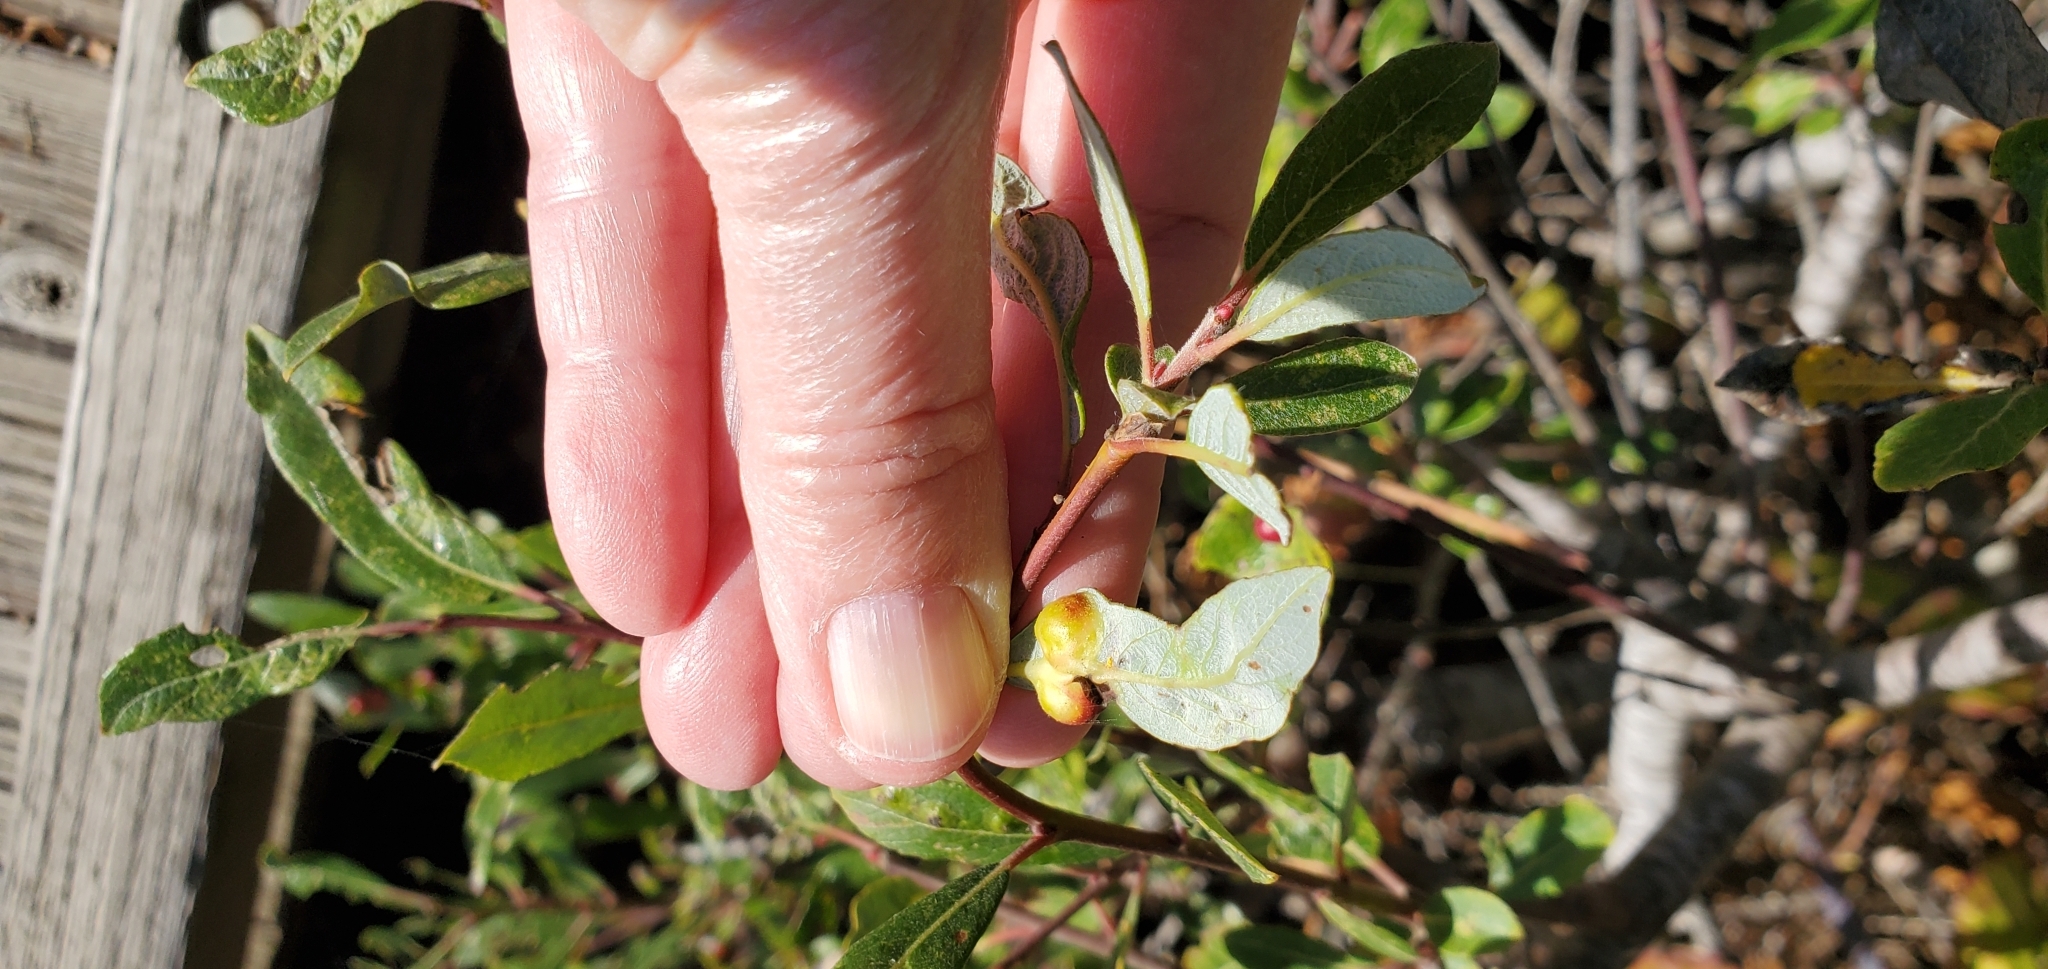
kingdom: Animalia
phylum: Arthropoda
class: Insecta
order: Hymenoptera
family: Tenthredinidae
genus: Euura
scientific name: Euura
